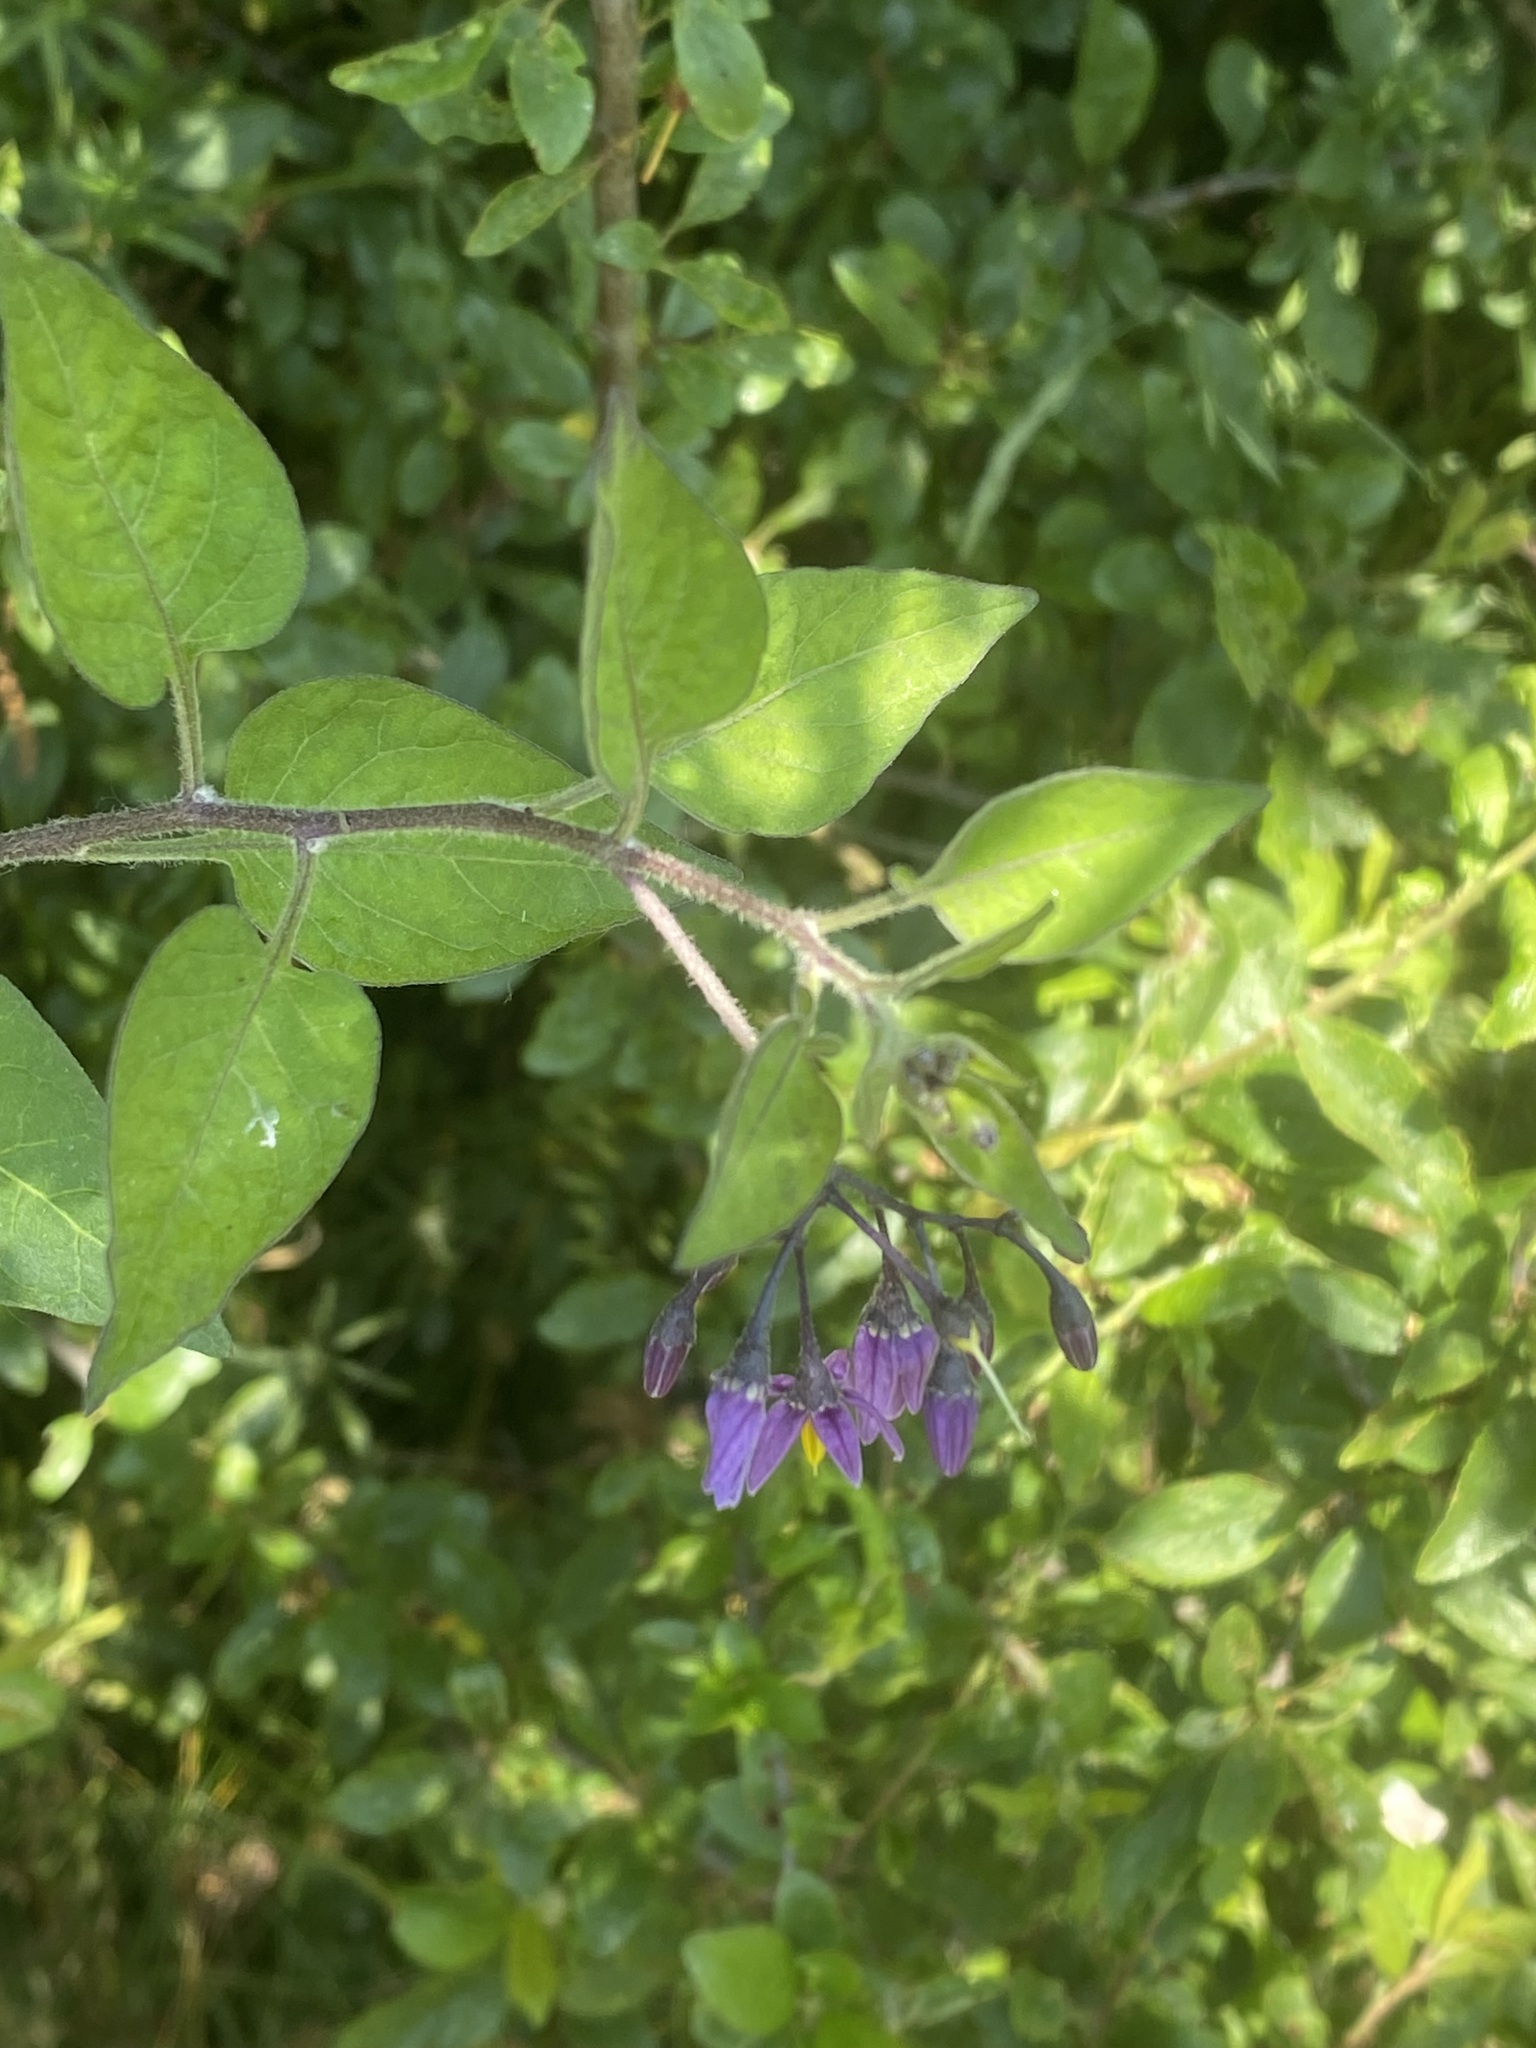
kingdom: Plantae
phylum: Tracheophyta
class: Magnoliopsida
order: Solanales
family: Solanaceae
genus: Solanum
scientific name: Solanum dulcamara
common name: Climbing nightshade
